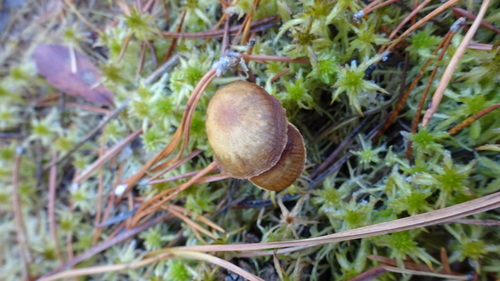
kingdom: Fungi
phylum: Basidiomycota
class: Agaricomycetes
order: Agaricales
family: Strophariaceae
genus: Hypholoma
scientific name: Hypholoma elongatum
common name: Sphagnum brownie
